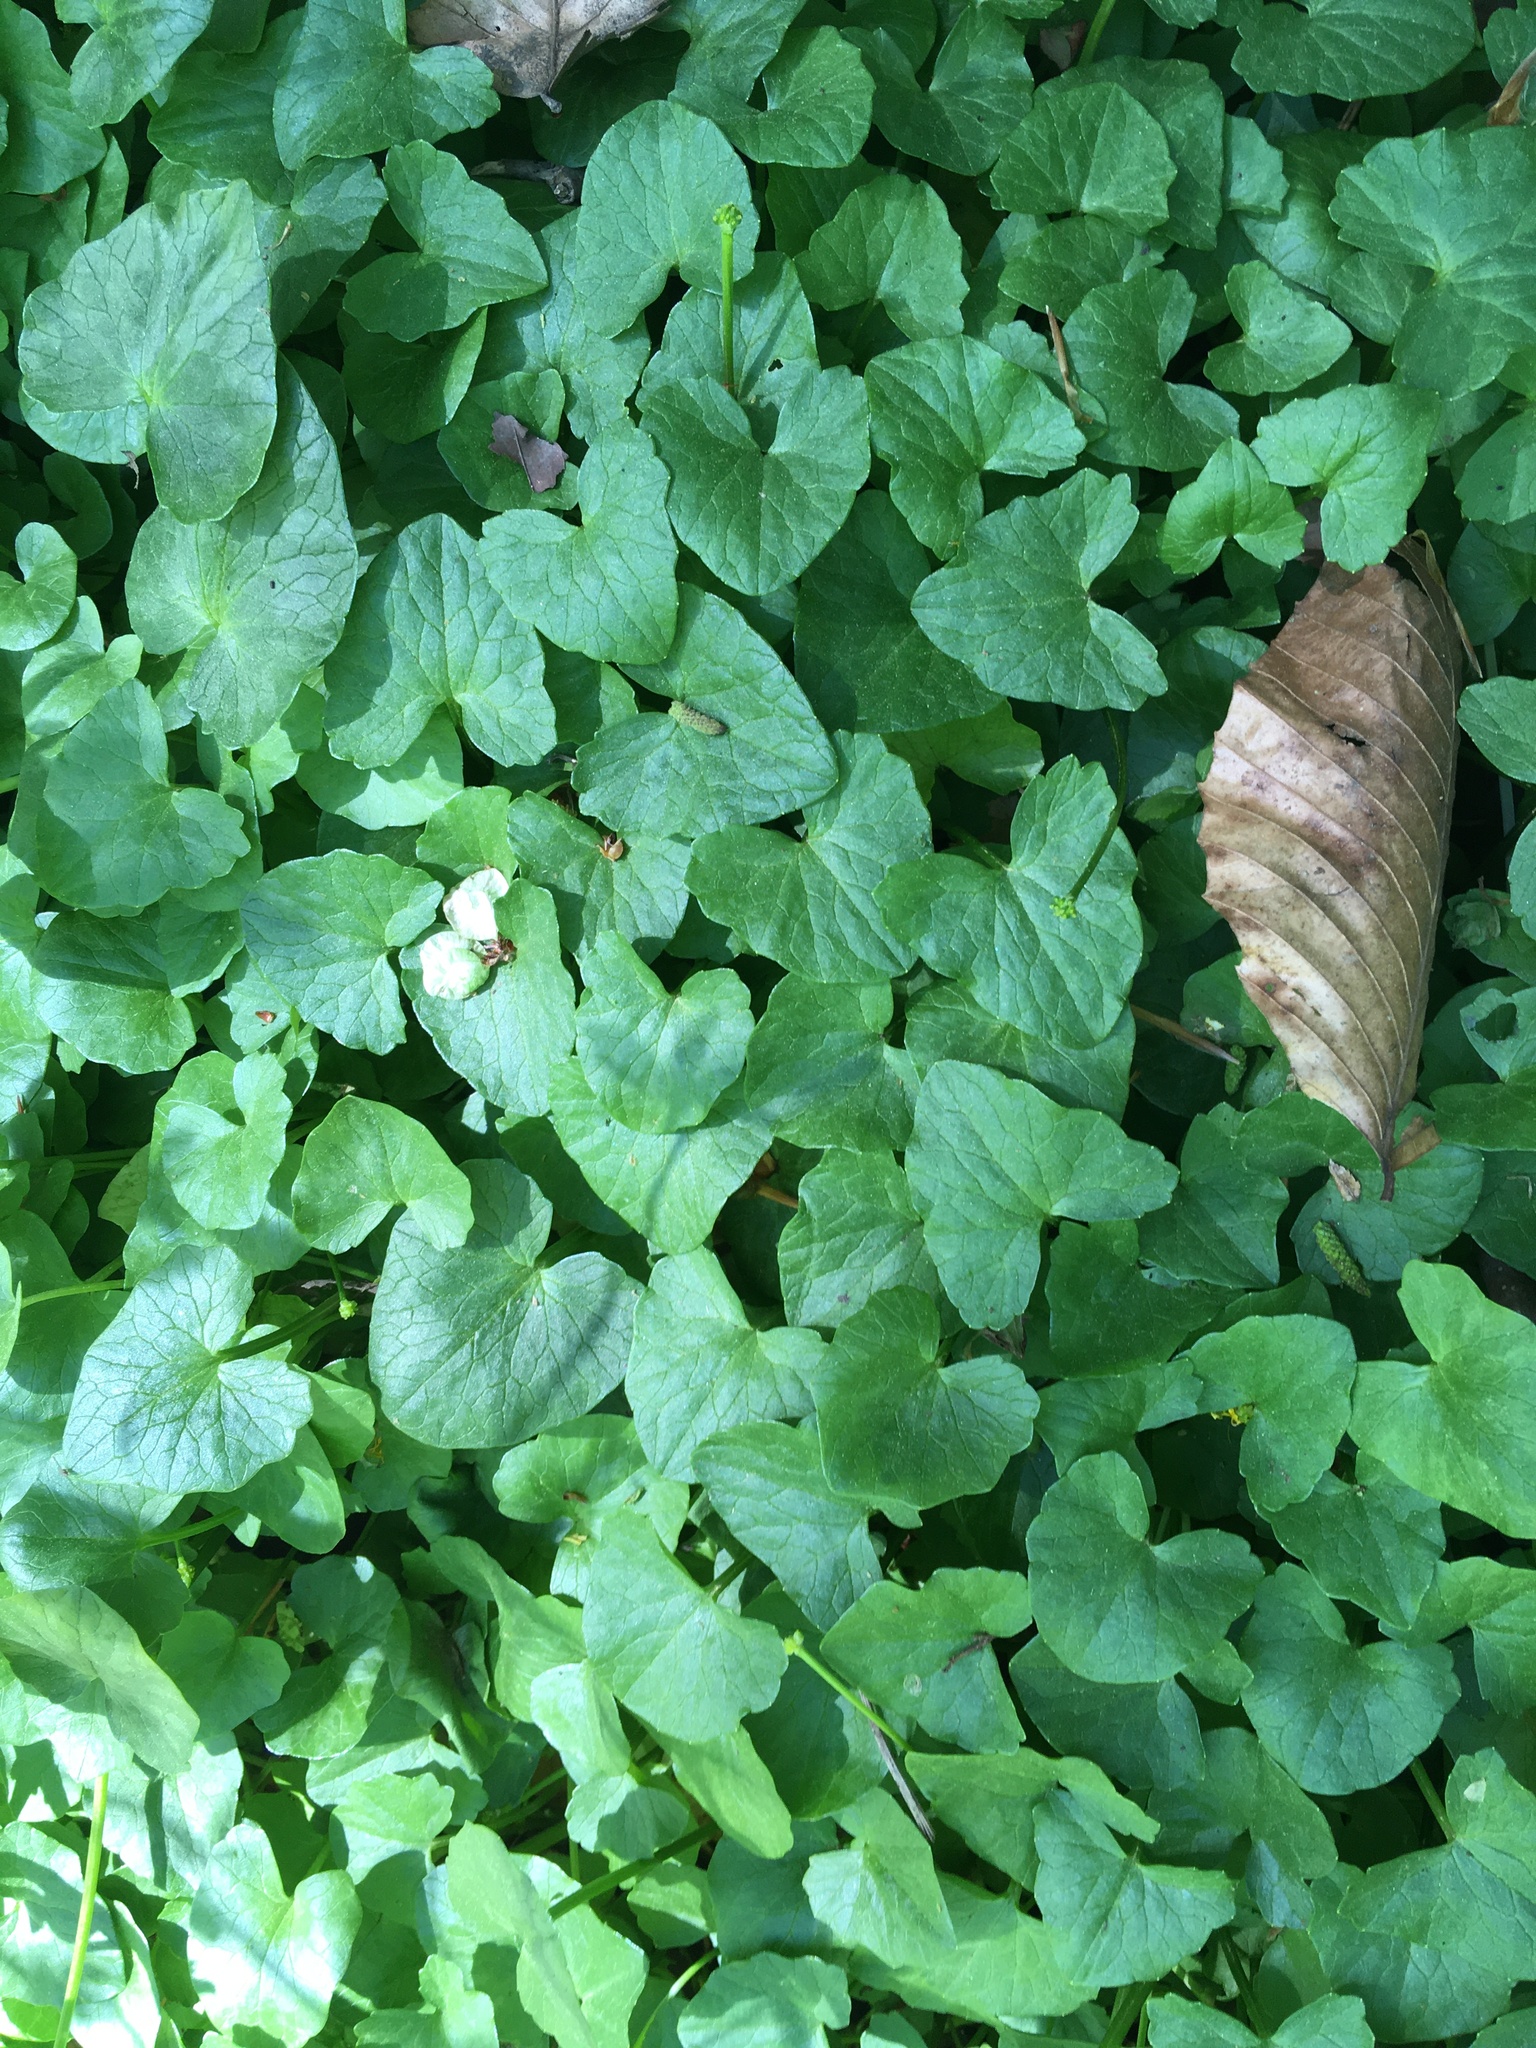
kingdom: Plantae
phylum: Tracheophyta
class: Magnoliopsida
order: Ranunculales
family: Ranunculaceae
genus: Ficaria
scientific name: Ficaria verna
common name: Lesser celandine
